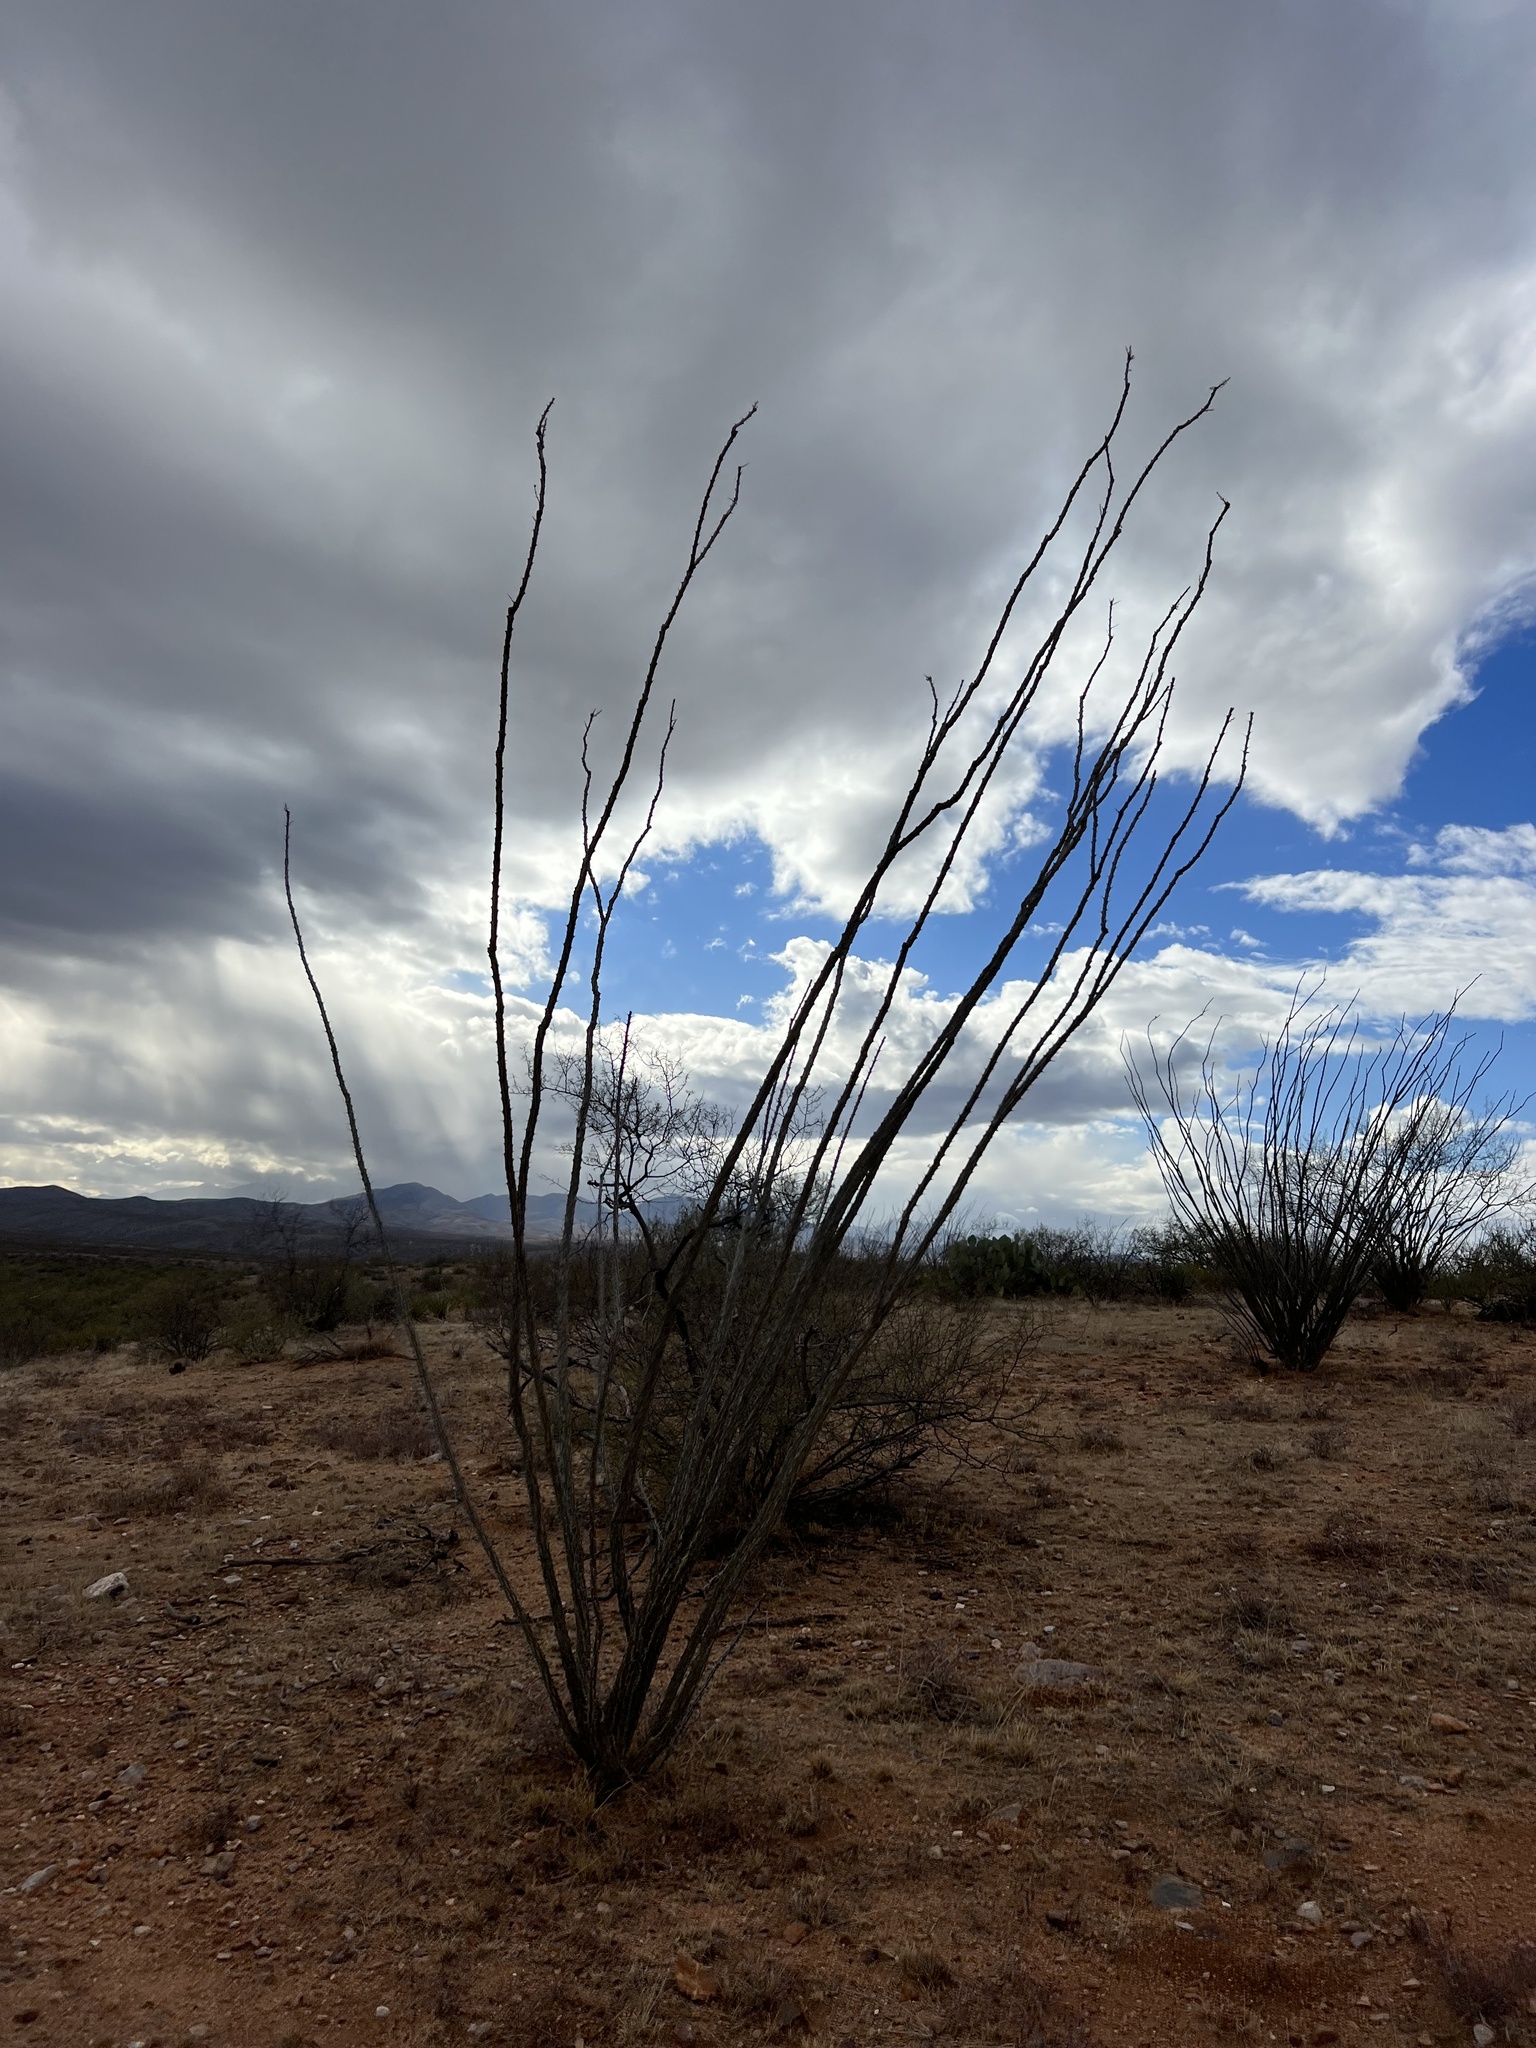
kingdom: Plantae
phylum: Tracheophyta
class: Magnoliopsida
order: Ericales
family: Fouquieriaceae
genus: Fouquieria
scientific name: Fouquieria splendens
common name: Vine-cactus
